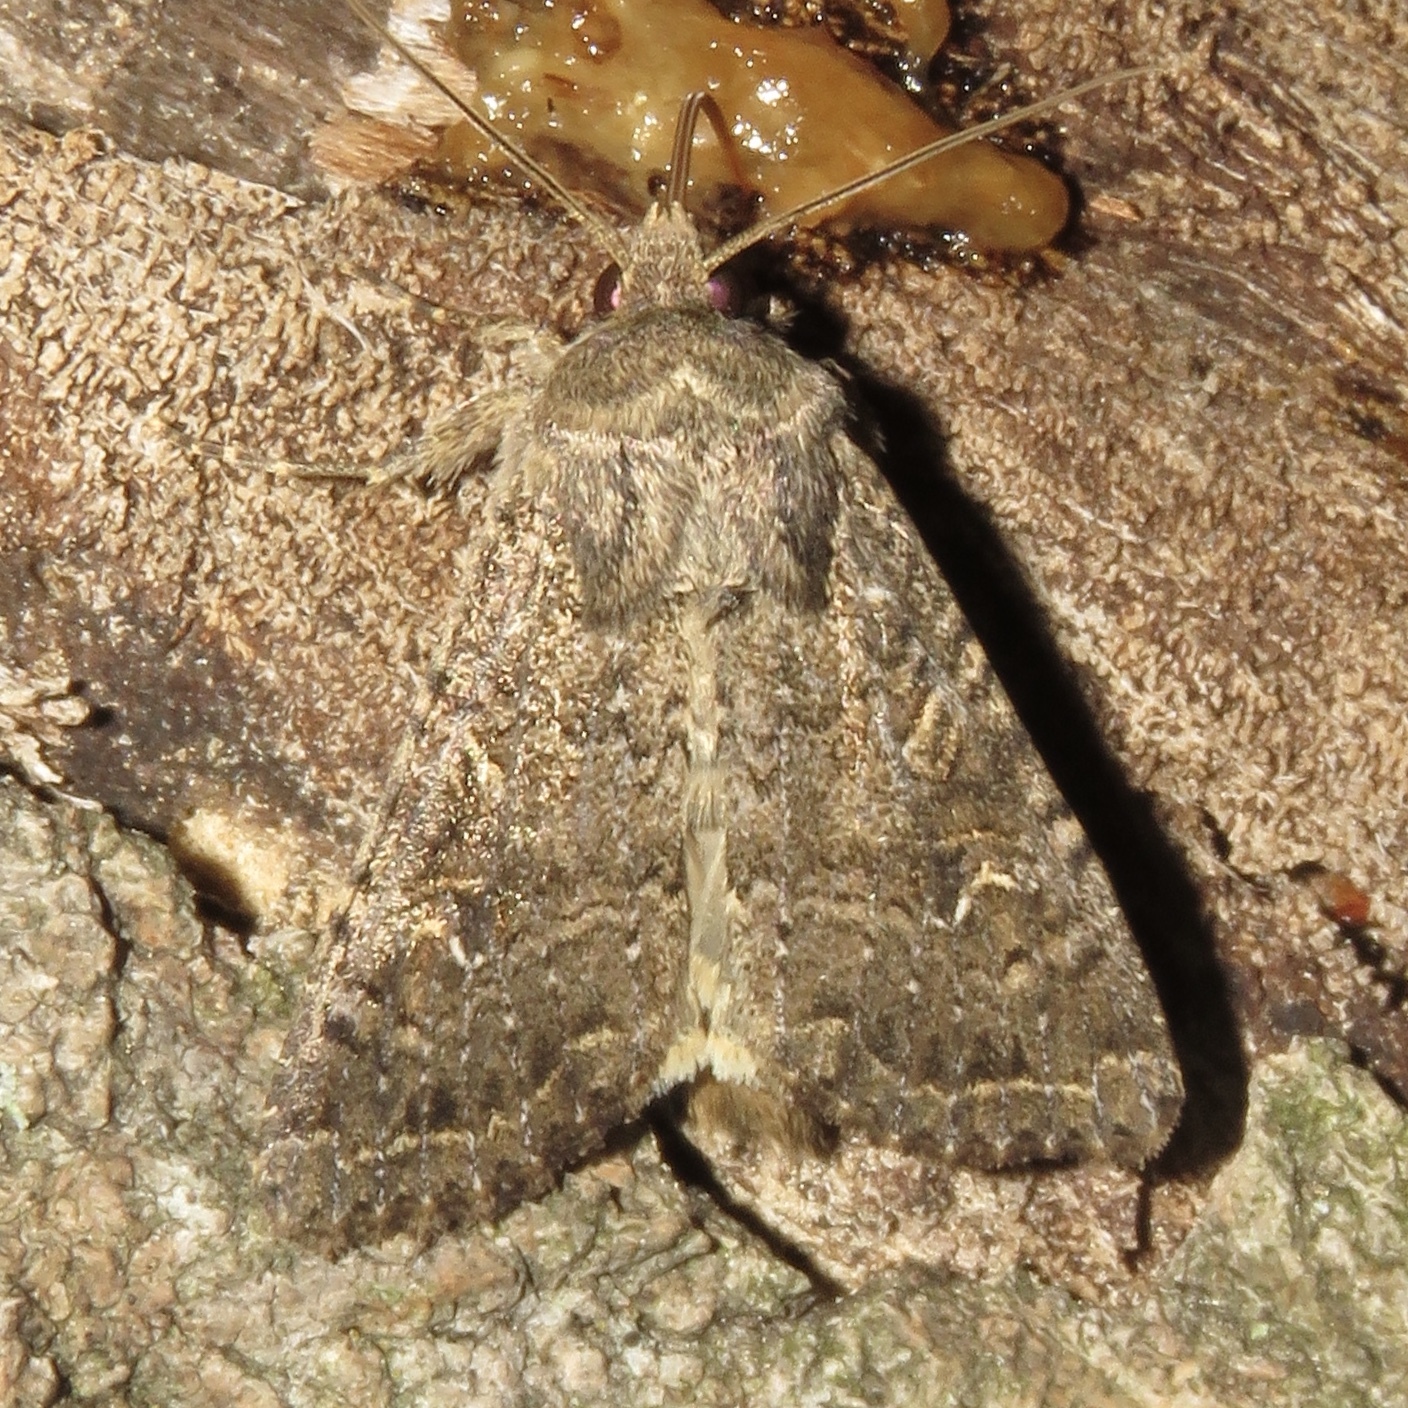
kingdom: Animalia
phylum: Arthropoda
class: Insecta
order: Lepidoptera
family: Noctuidae
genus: Apamea
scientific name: Apamea devastator
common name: Glassy cutworm
